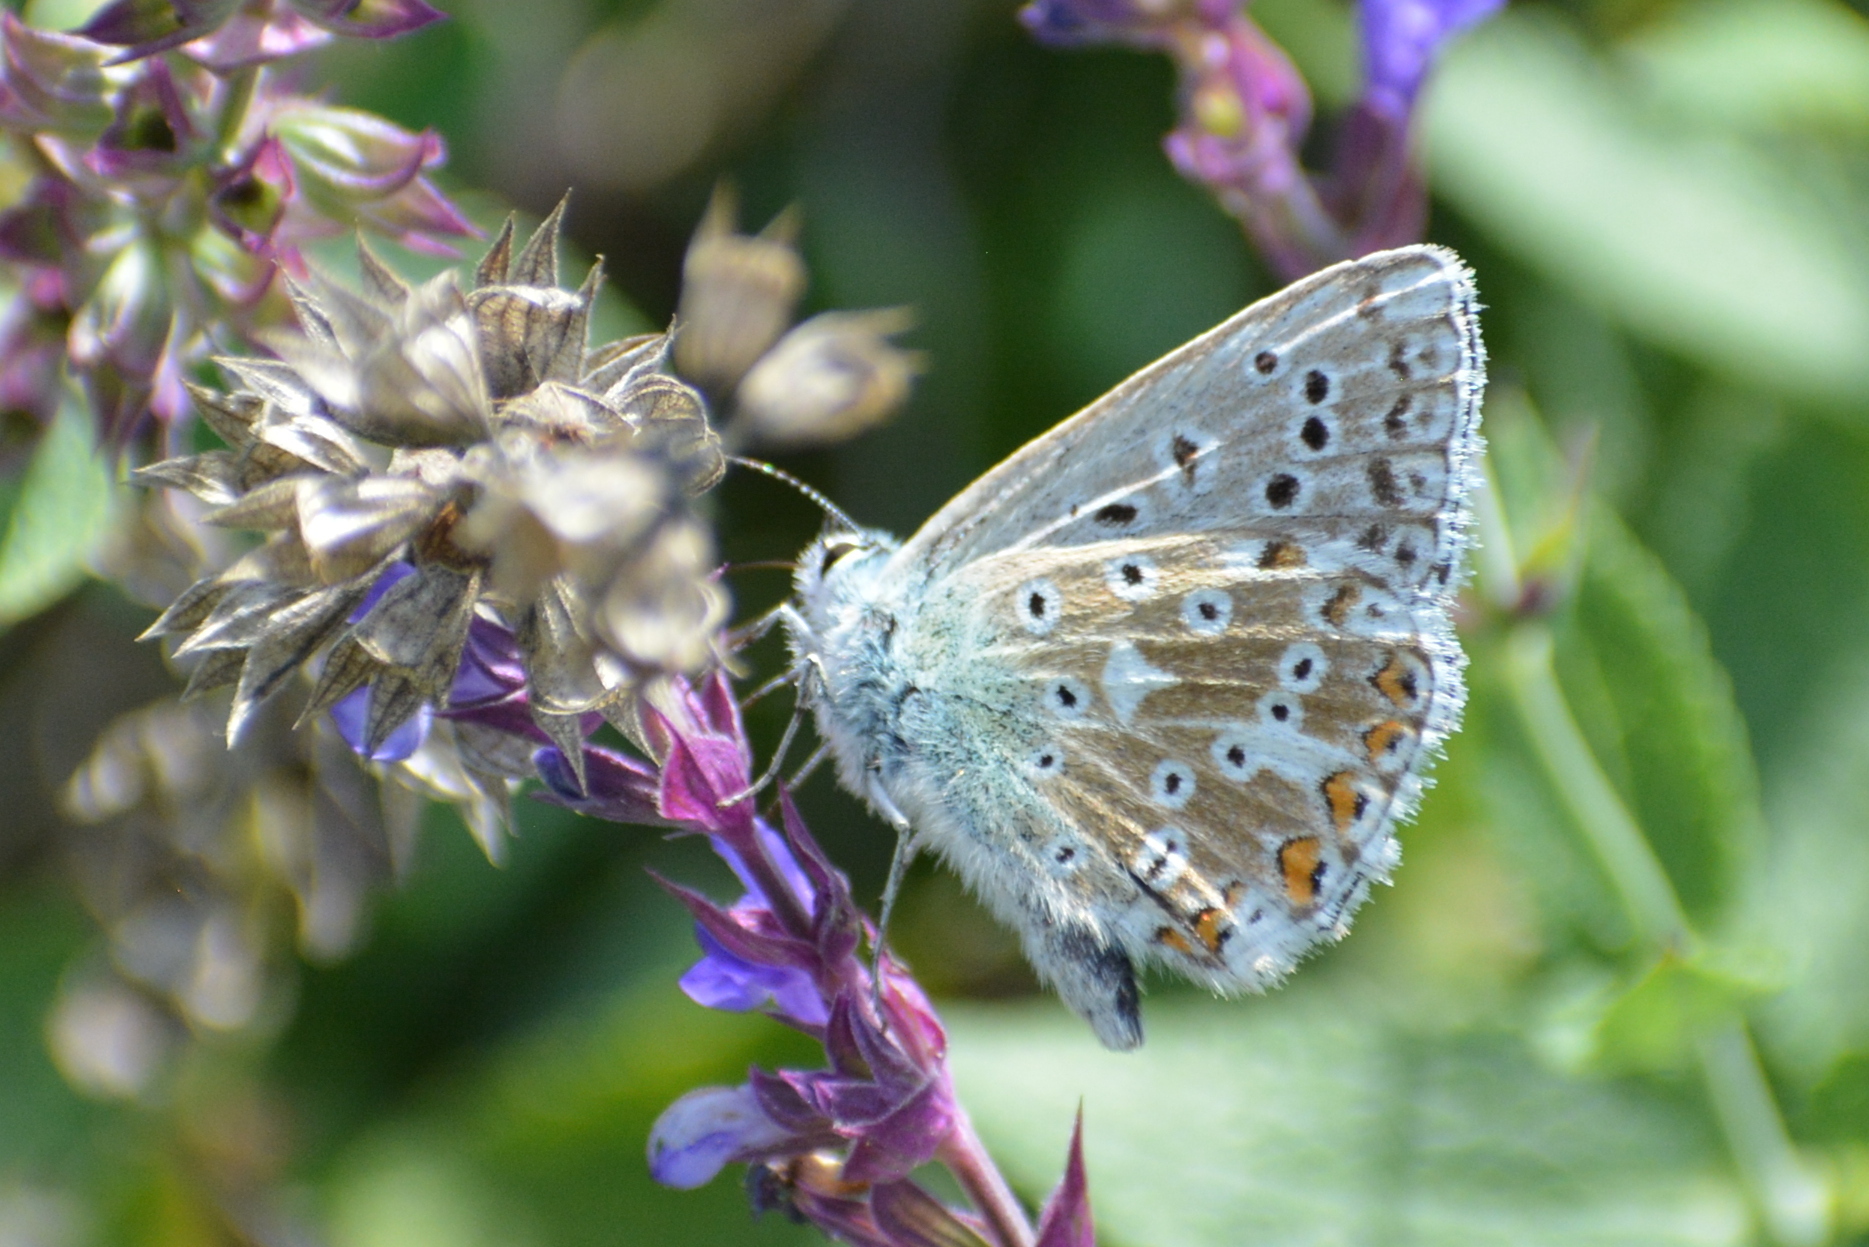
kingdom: Animalia
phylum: Arthropoda
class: Insecta
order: Lepidoptera
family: Lycaenidae
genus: Lysandra
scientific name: Lysandra coridon
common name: Chalkhill blue
